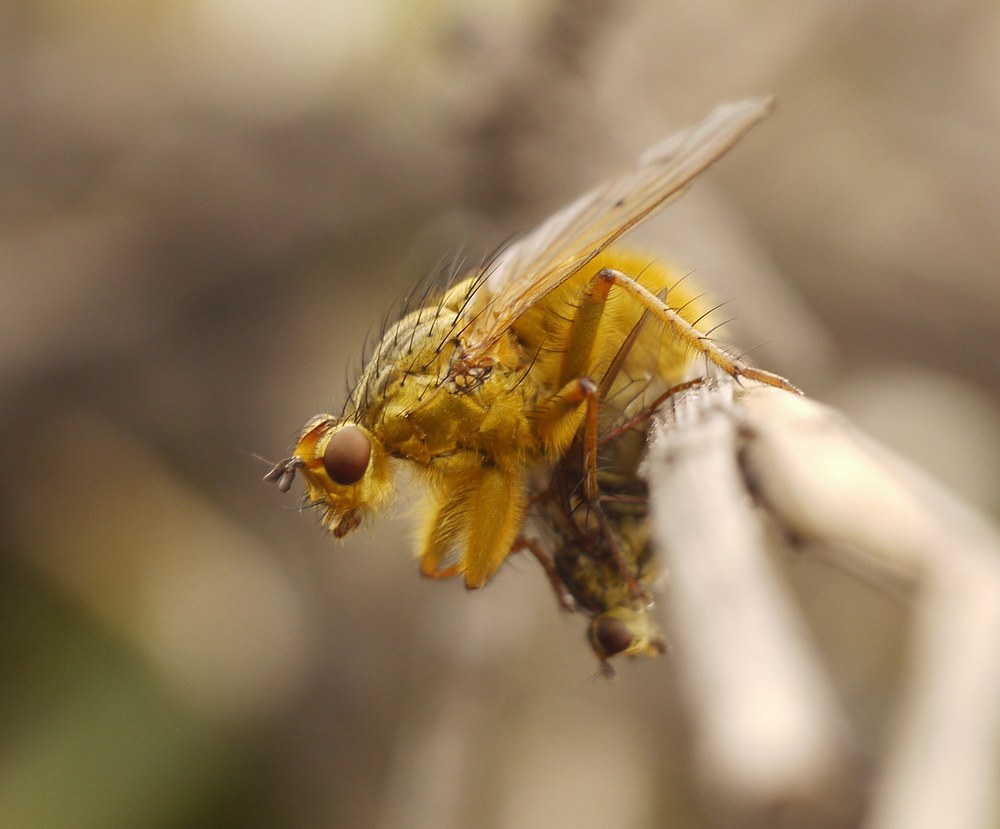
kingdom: Animalia
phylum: Arthropoda
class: Insecta
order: Diptera
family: Scathophagidae
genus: Scathophaga
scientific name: Scathophaga stercoraria
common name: Yellow dung fly
